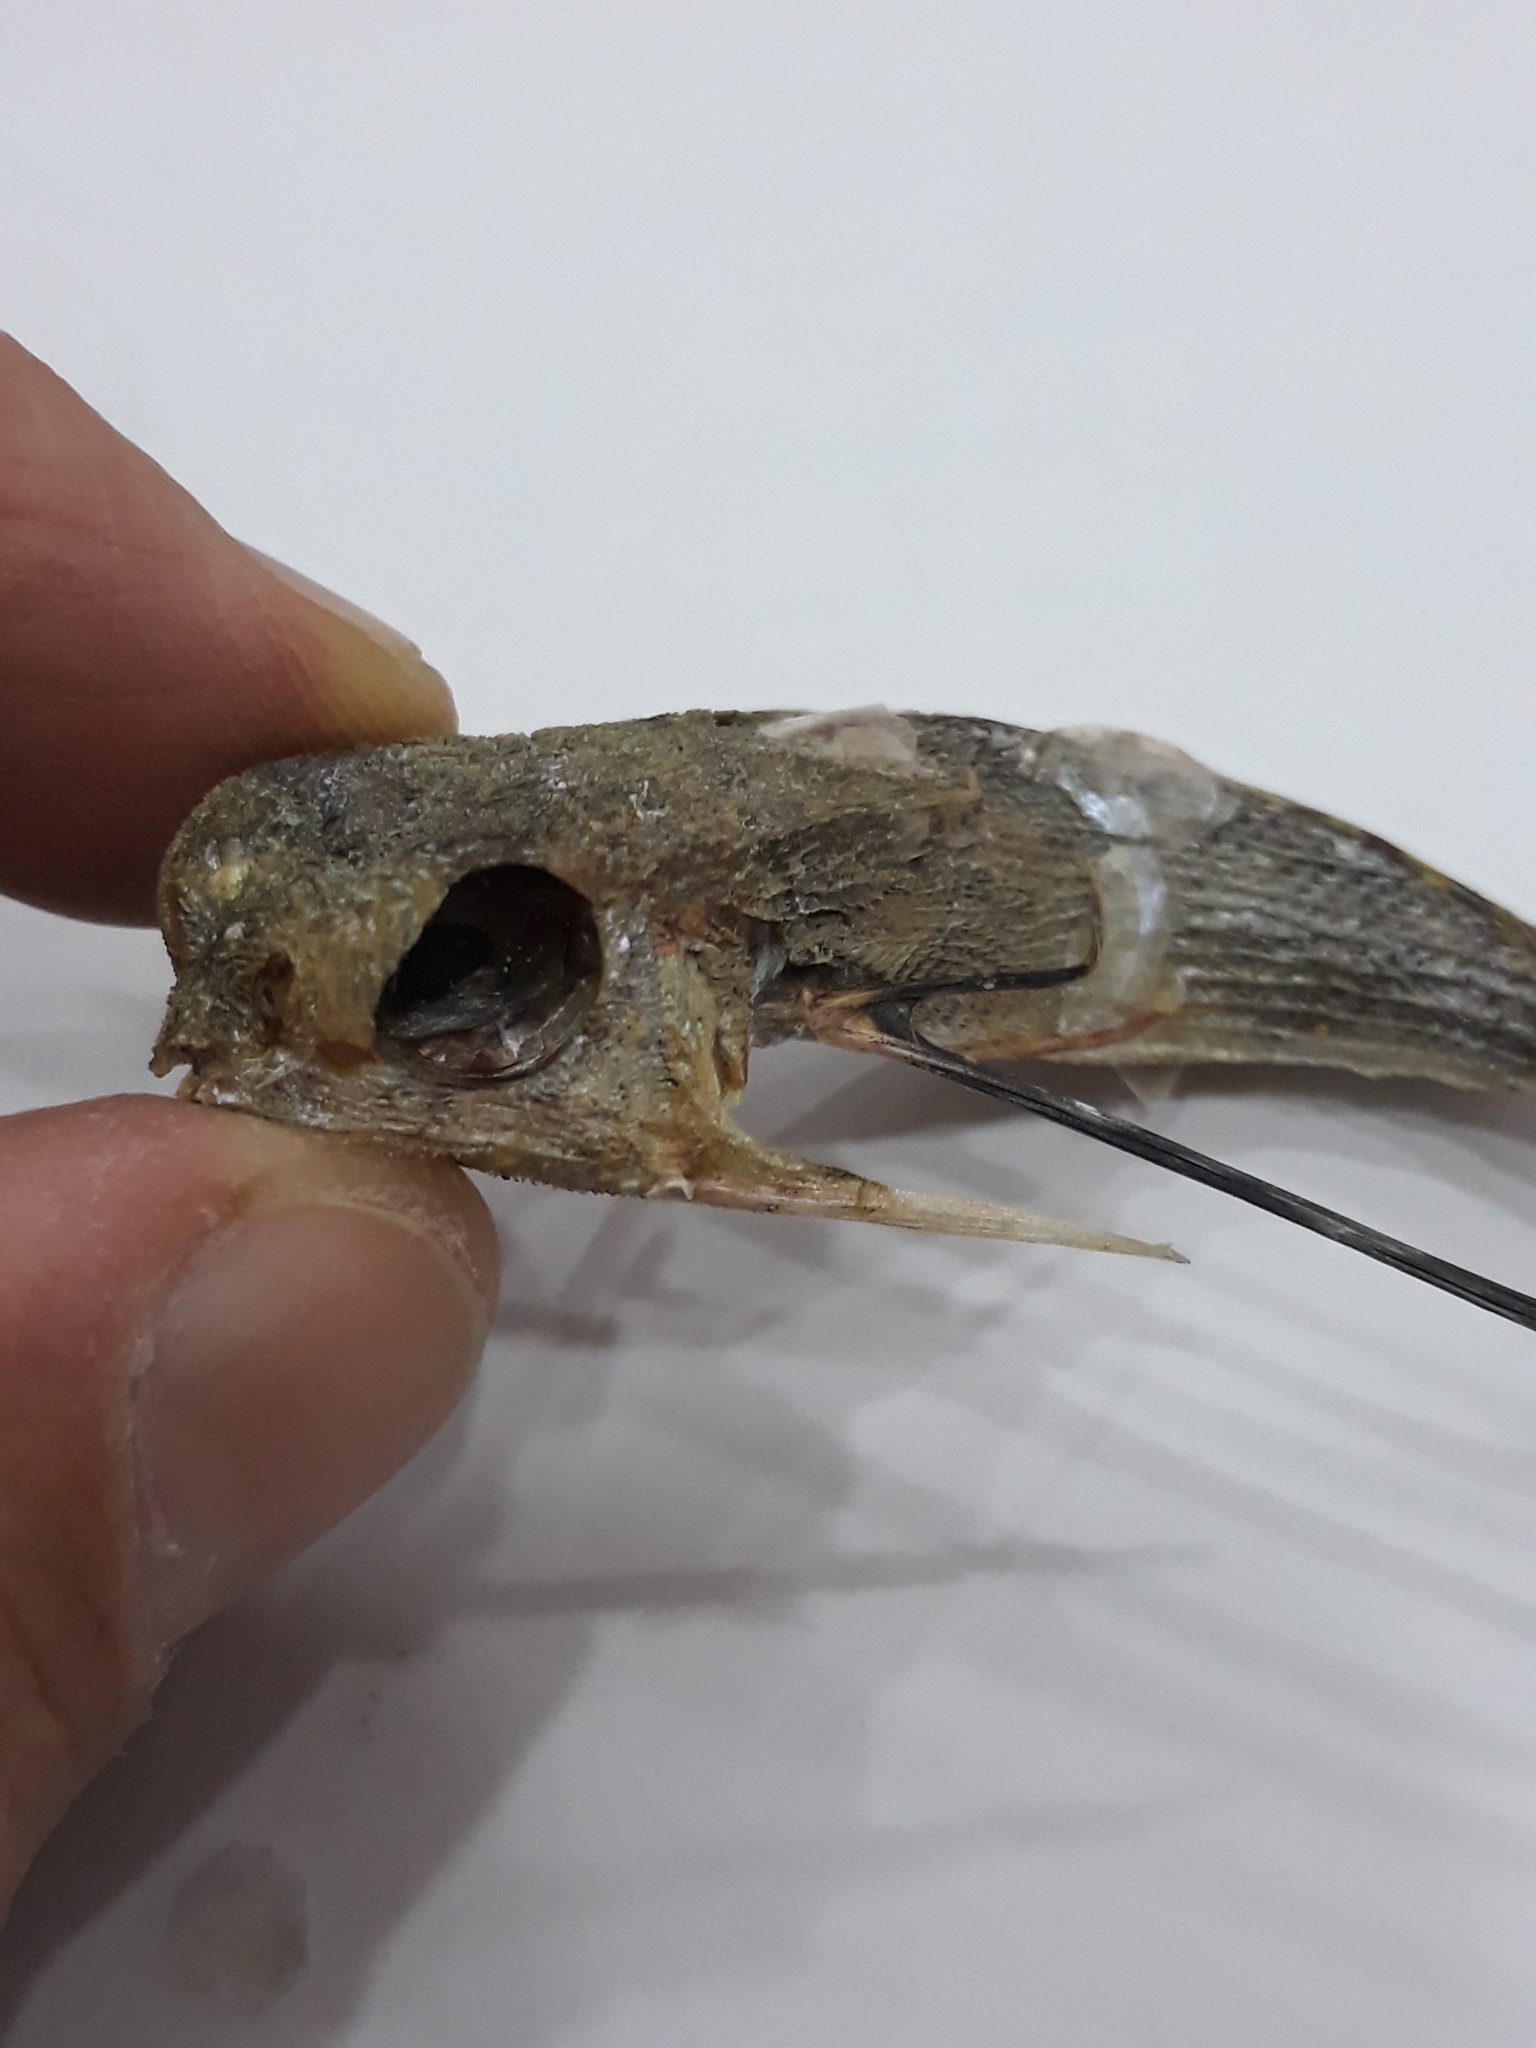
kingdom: Animalia
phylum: Chordata
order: Scorpaeniformes
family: Dactylopteridae
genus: Dactylopterus
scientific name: Dactylopterus volitans
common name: Flying gurnard
